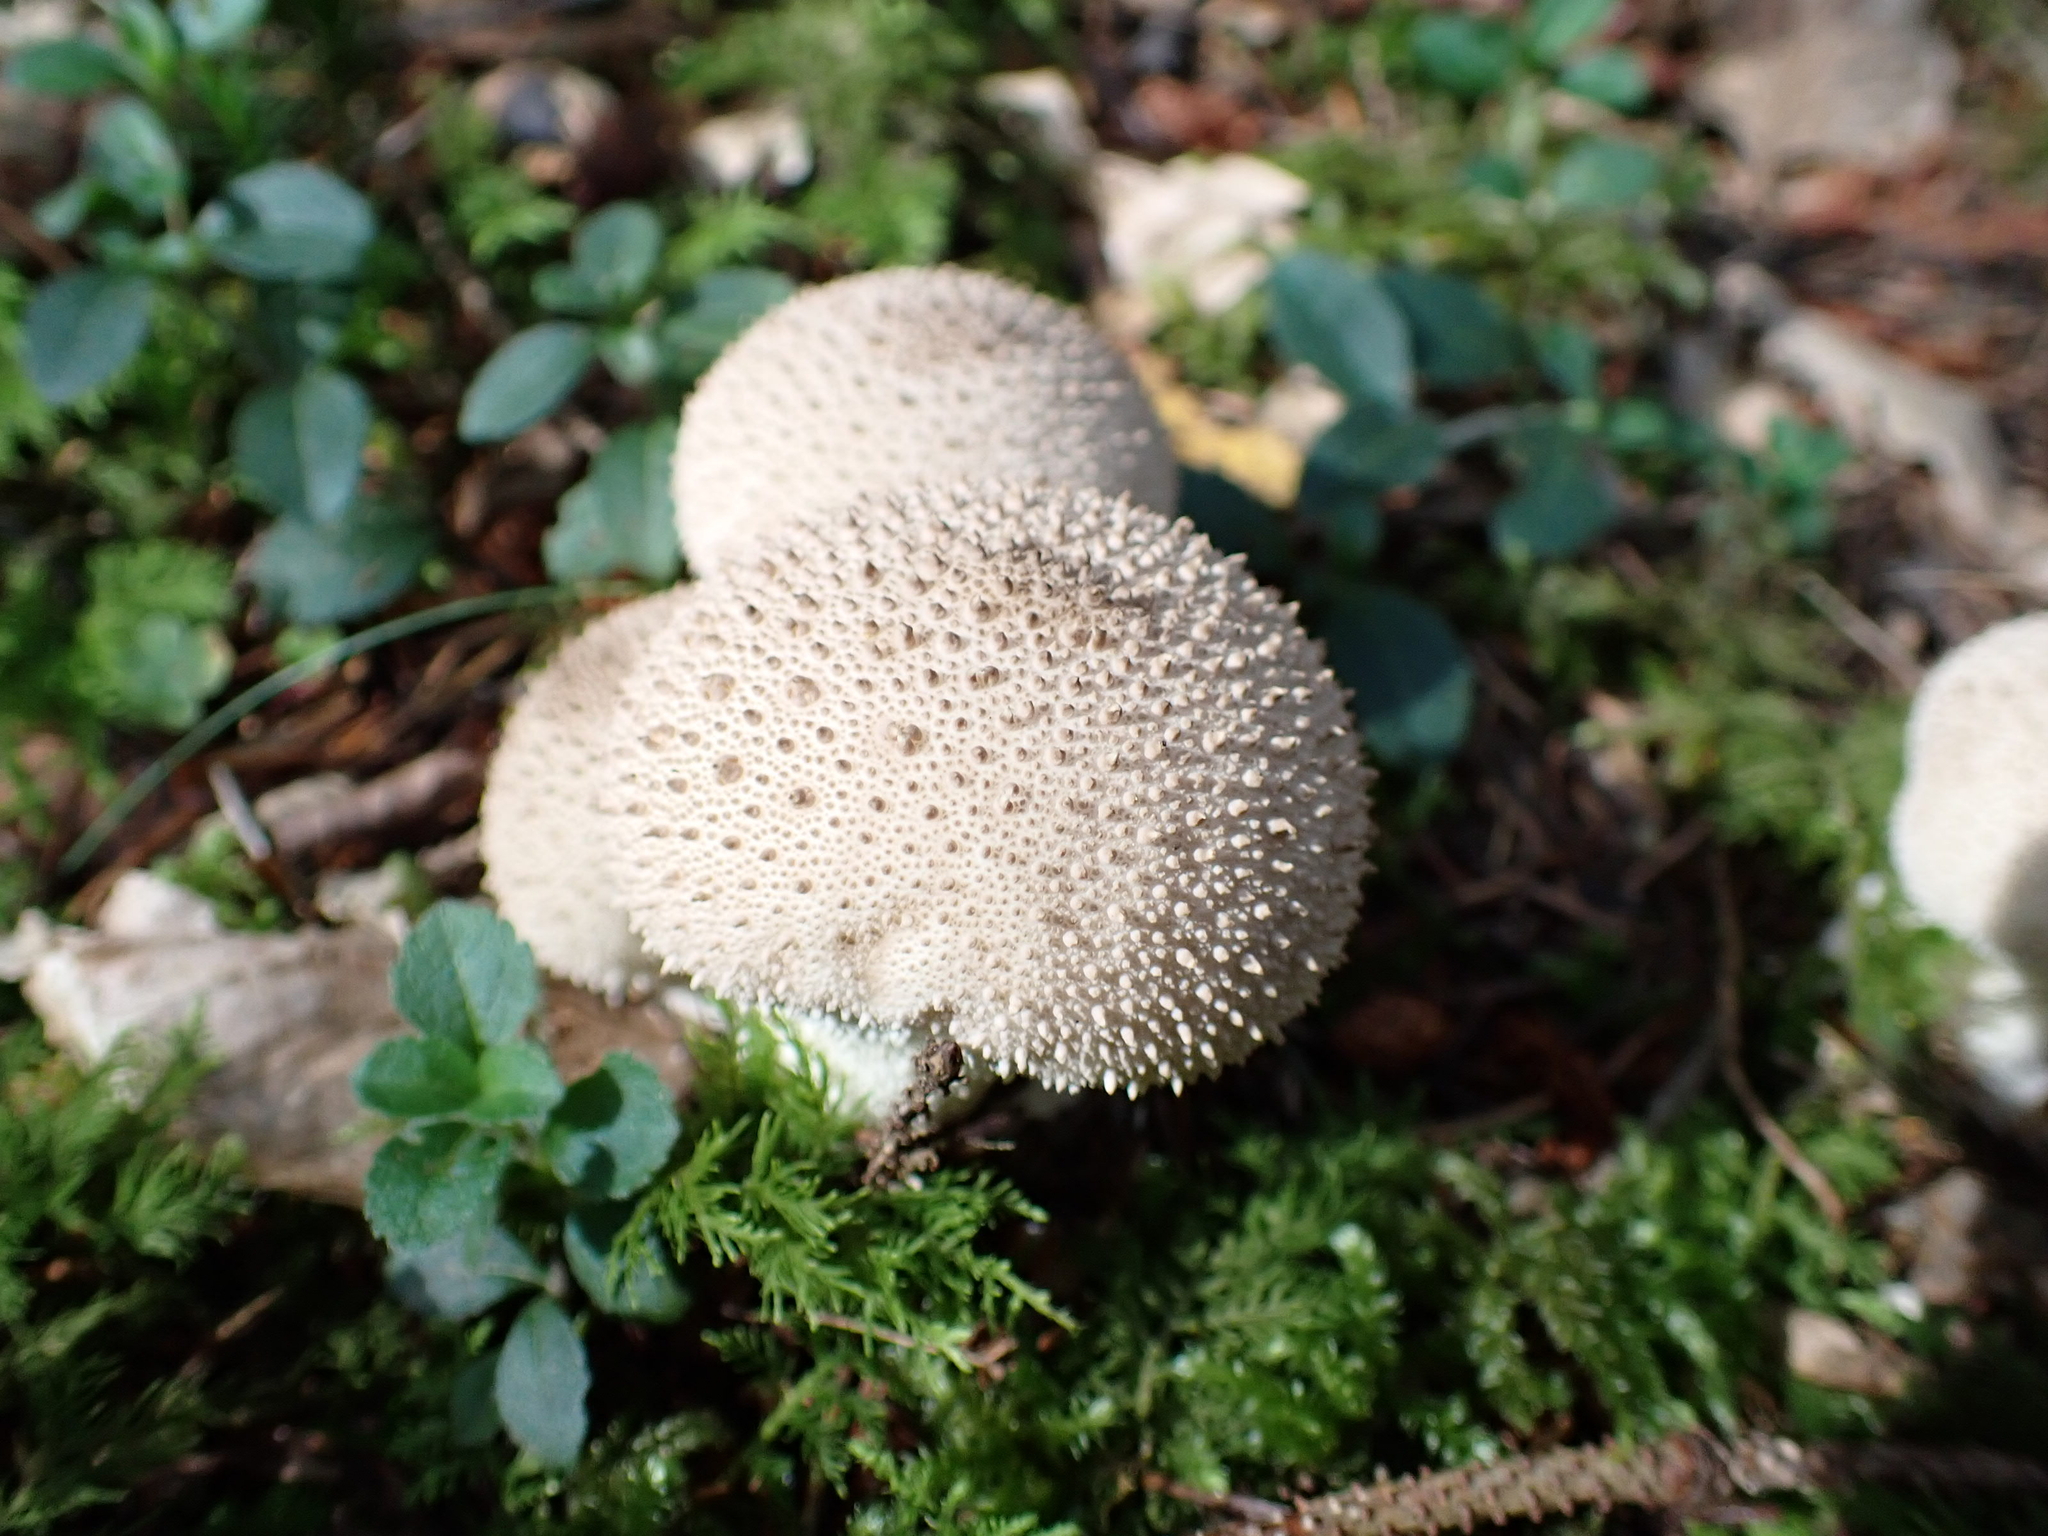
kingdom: Fungi
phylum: Basidiomycota
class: Agaricomycetes
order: Agaricales
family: Lycoperdaceae
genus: Lycoperdon
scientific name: Lycoperdon perlatum
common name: Common puffball
